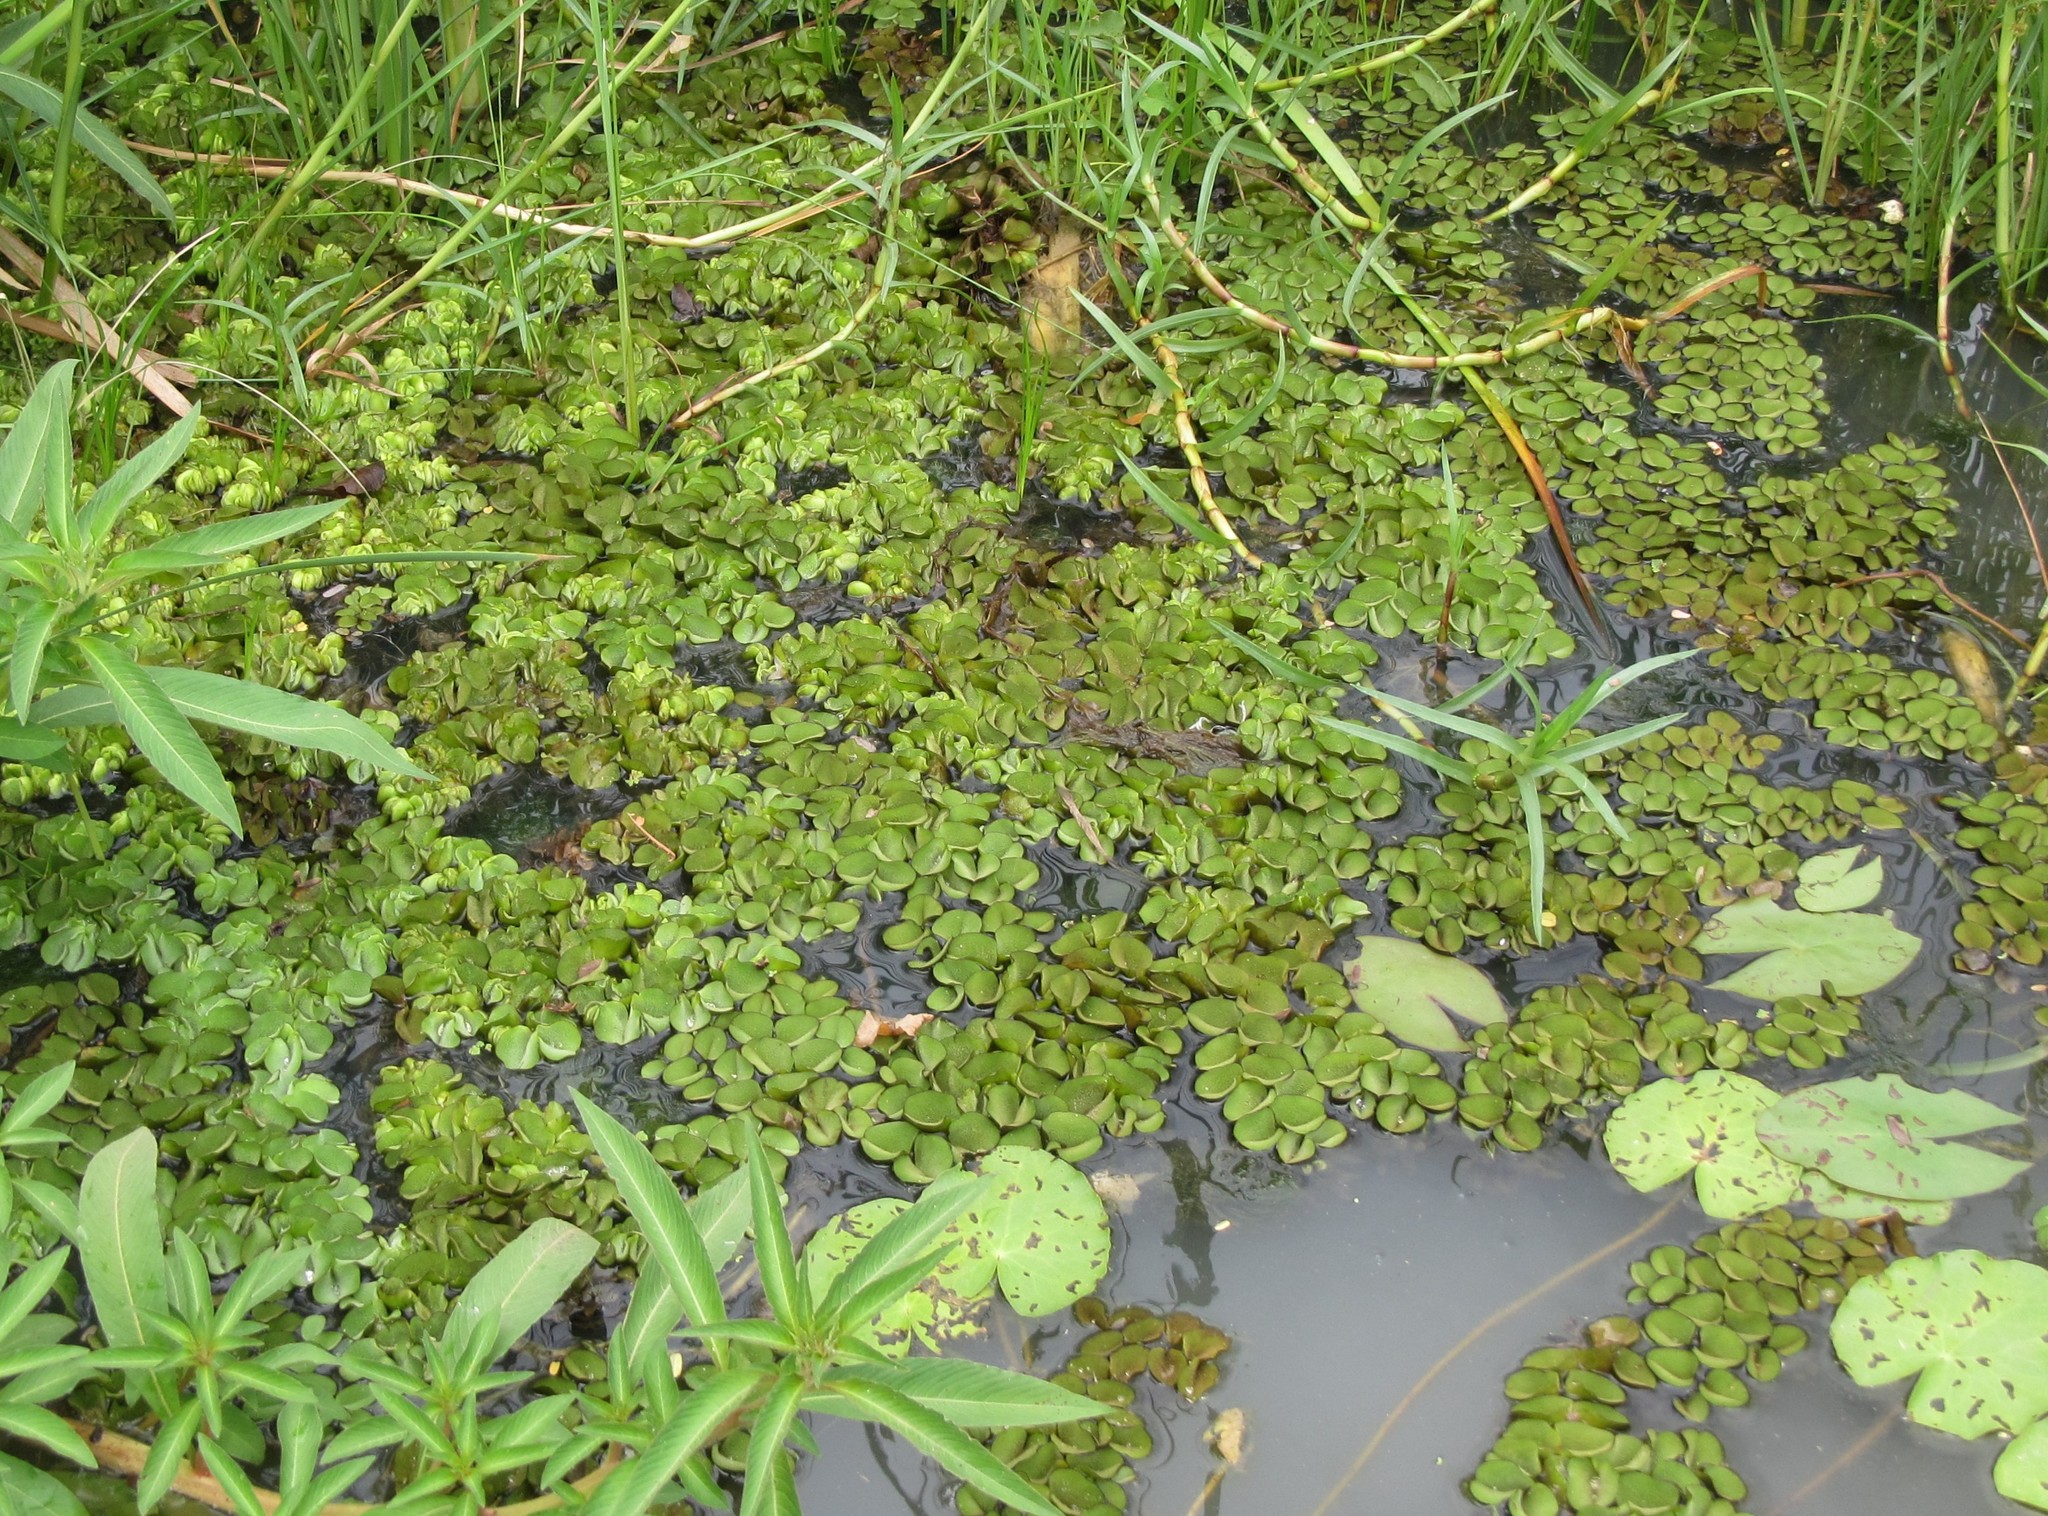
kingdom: Plantae
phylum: Tracheophyta
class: Polypodiopsida
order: Salviniales
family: Salviniaceae
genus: Salvinia
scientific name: Salvinia molesta
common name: Kariba weed
